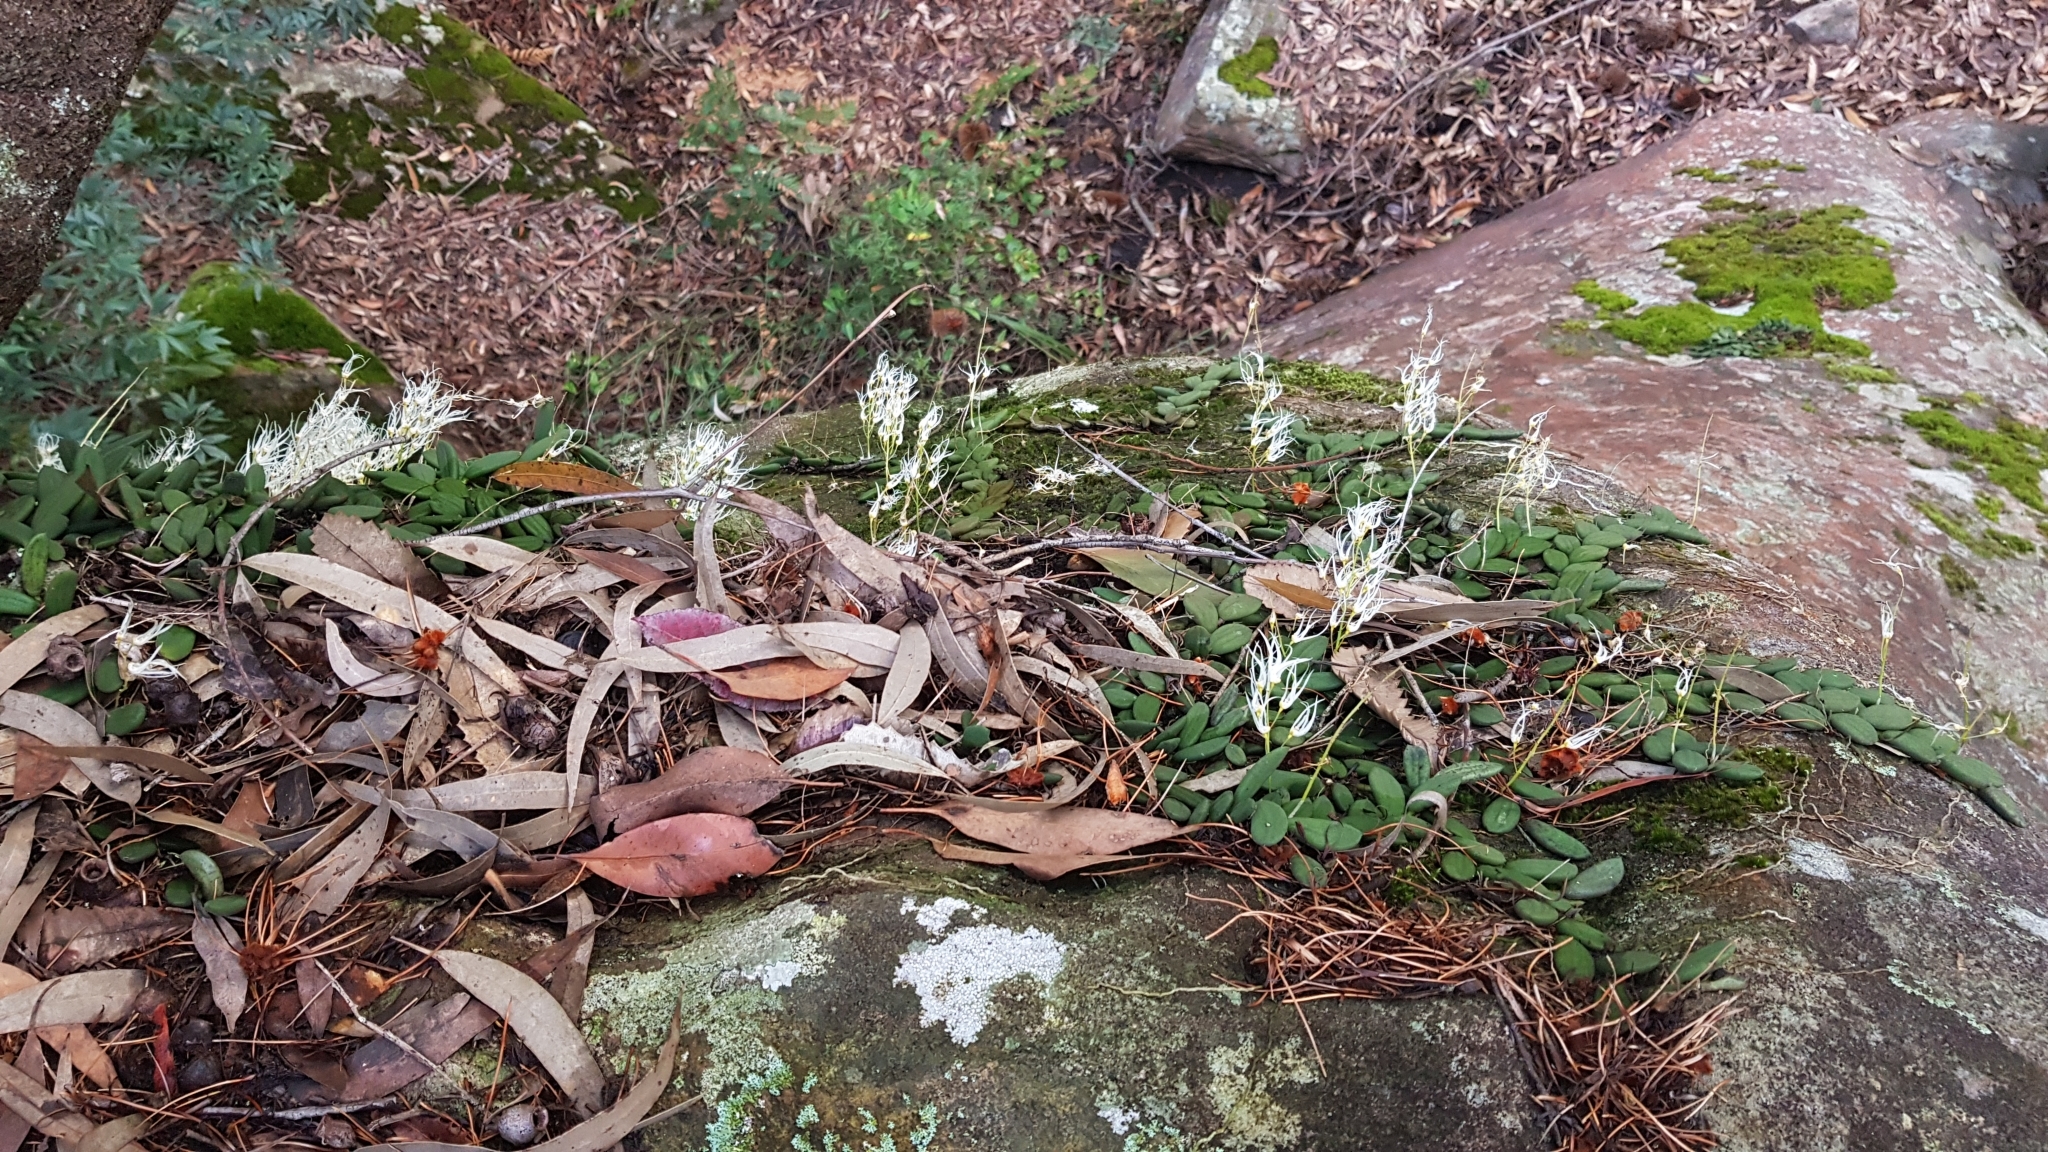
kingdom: Plantae
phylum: Tracheophyta
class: Liliopsida
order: Asparagales
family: Orchidaceae
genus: Dendrobium
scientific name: Dendrobium linguiforme
